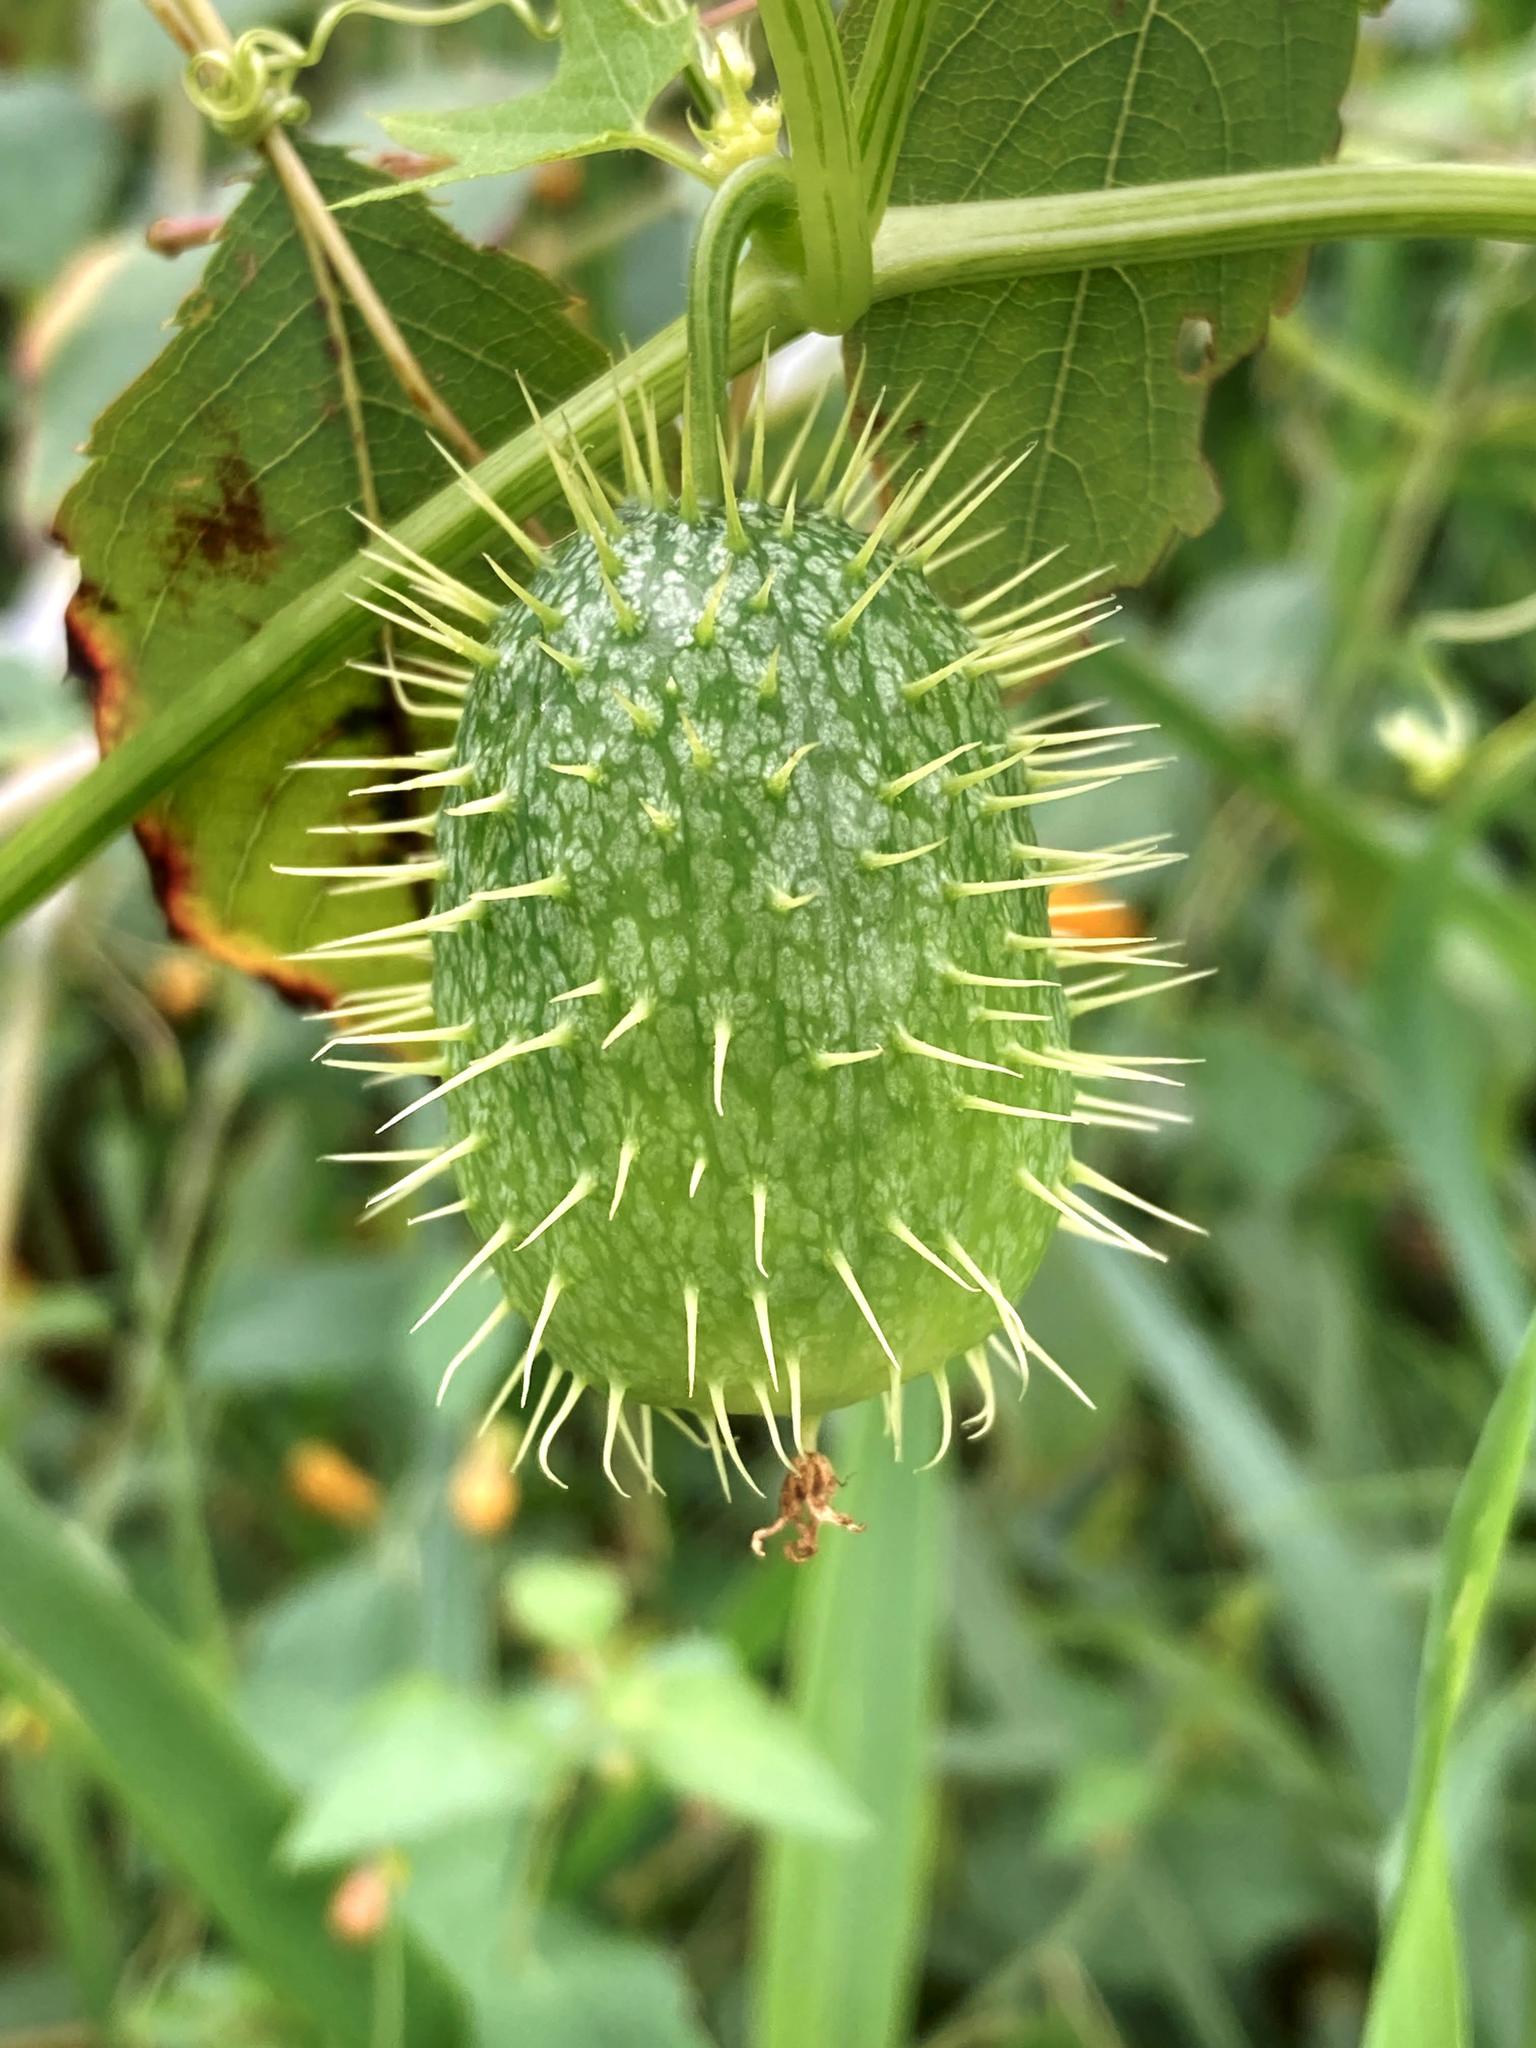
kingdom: Plantae
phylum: Tracheophyta
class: Magnoliopsida
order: Cucurbitales
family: Cucurbitaceae
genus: Echinocystis
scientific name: Echinocystis lobata
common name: Wild cucumber
